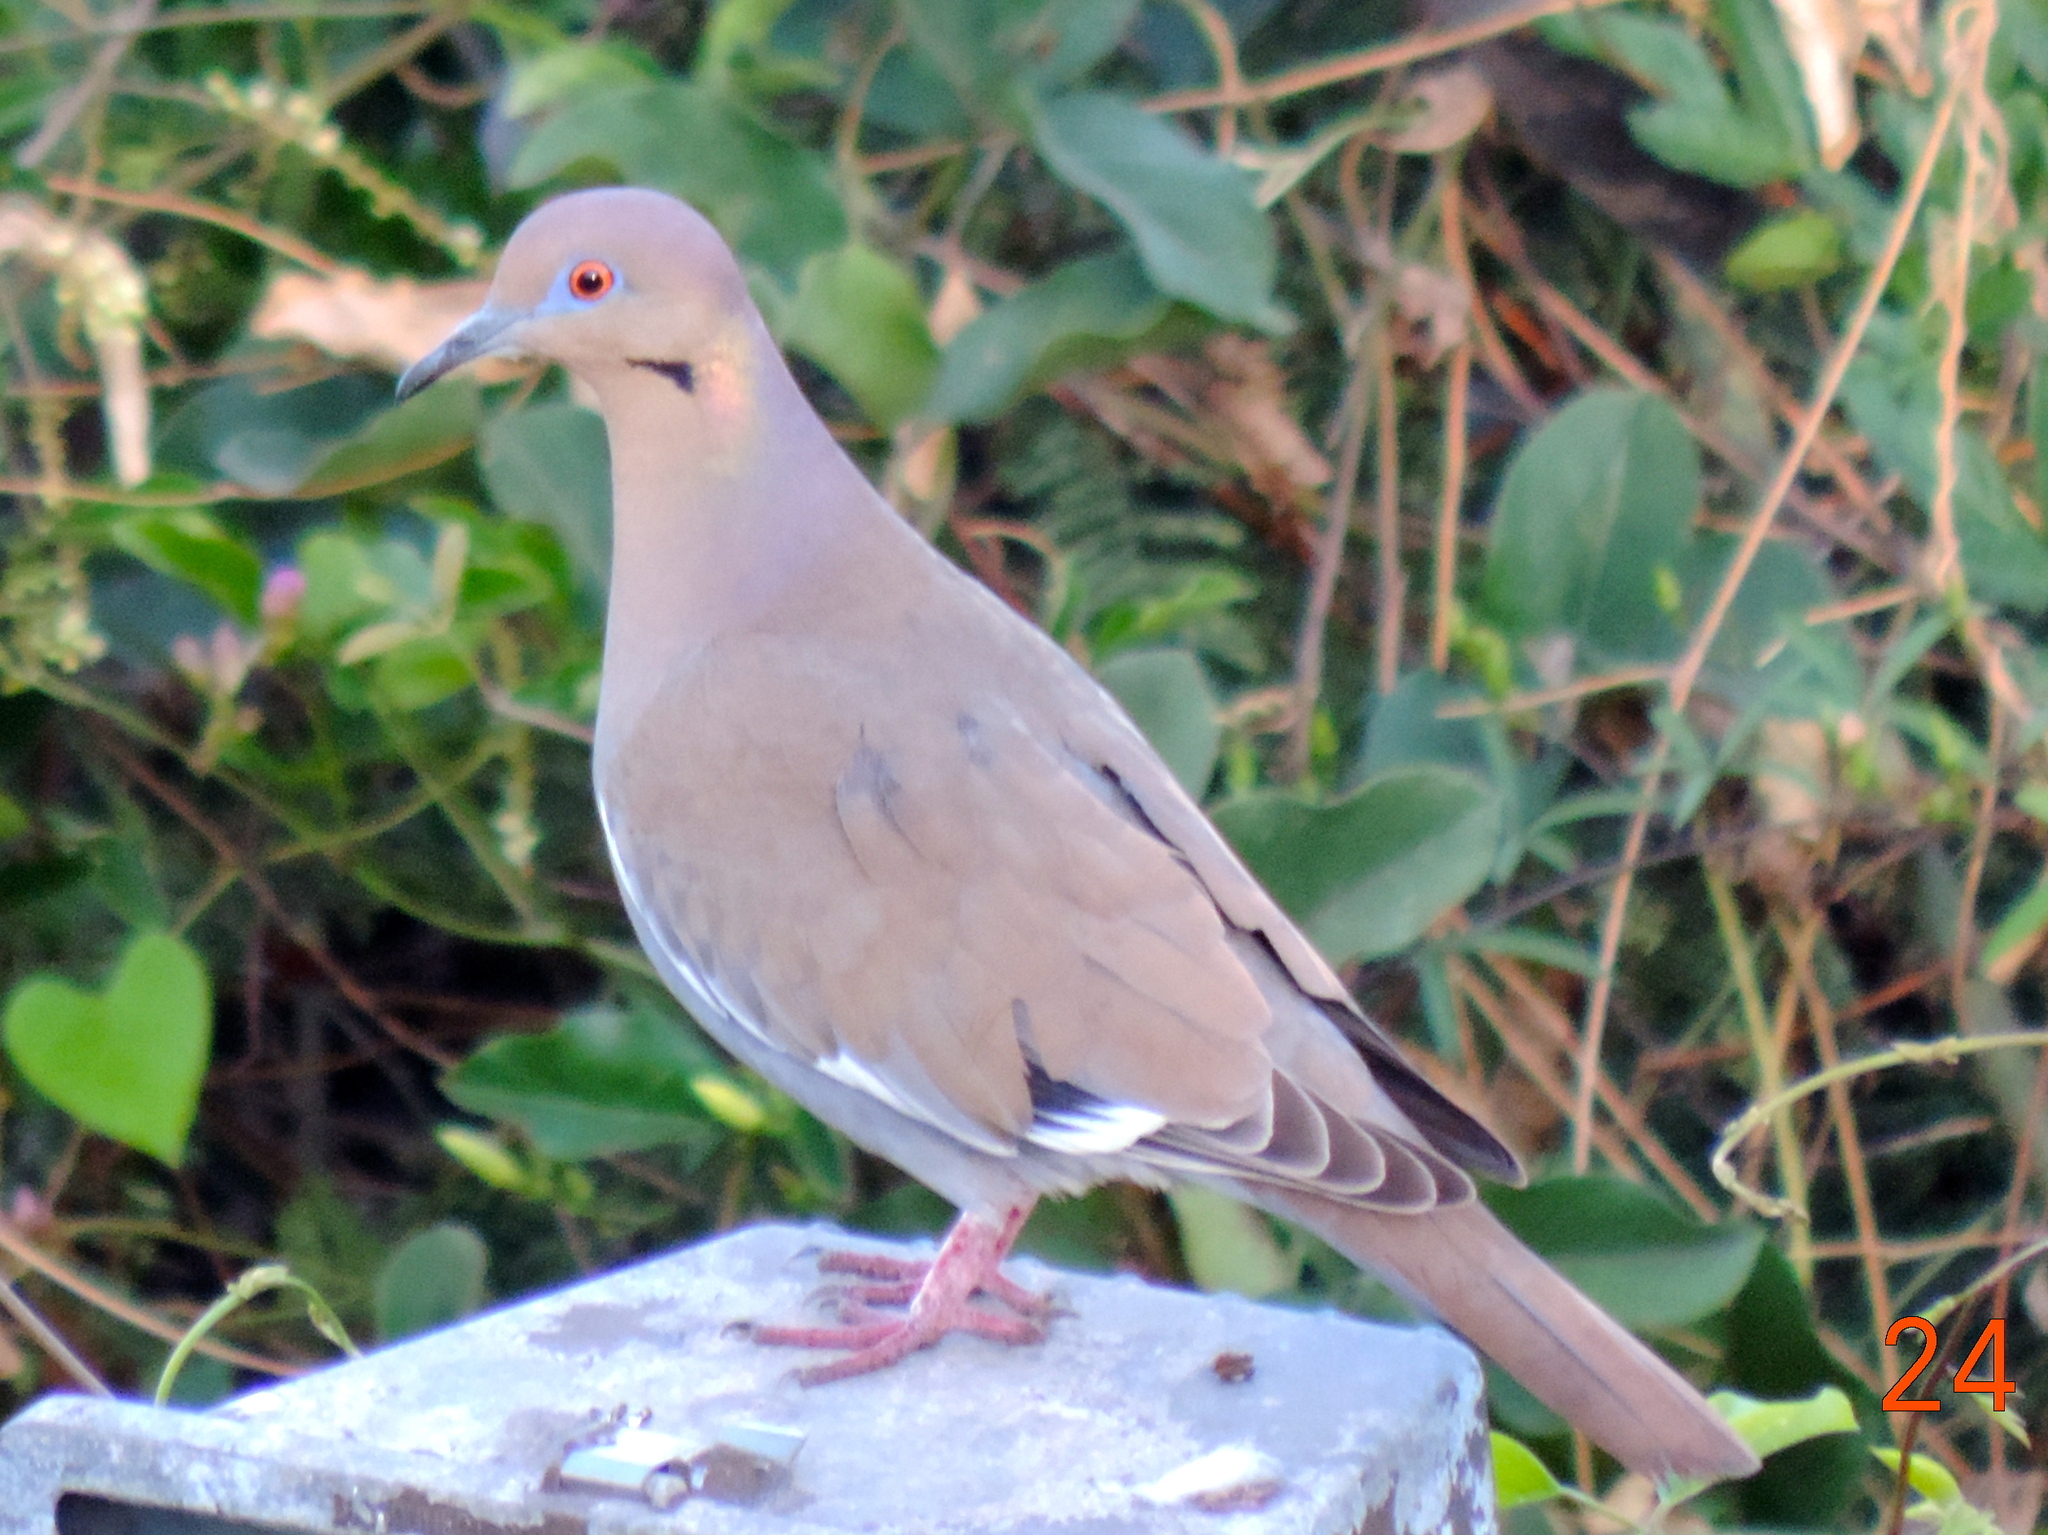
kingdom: Animalia
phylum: Chordata
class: Aves
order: Columbiformes
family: Columbidae
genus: Zenaida
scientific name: Zenaida asiatica
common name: White-winged dove
